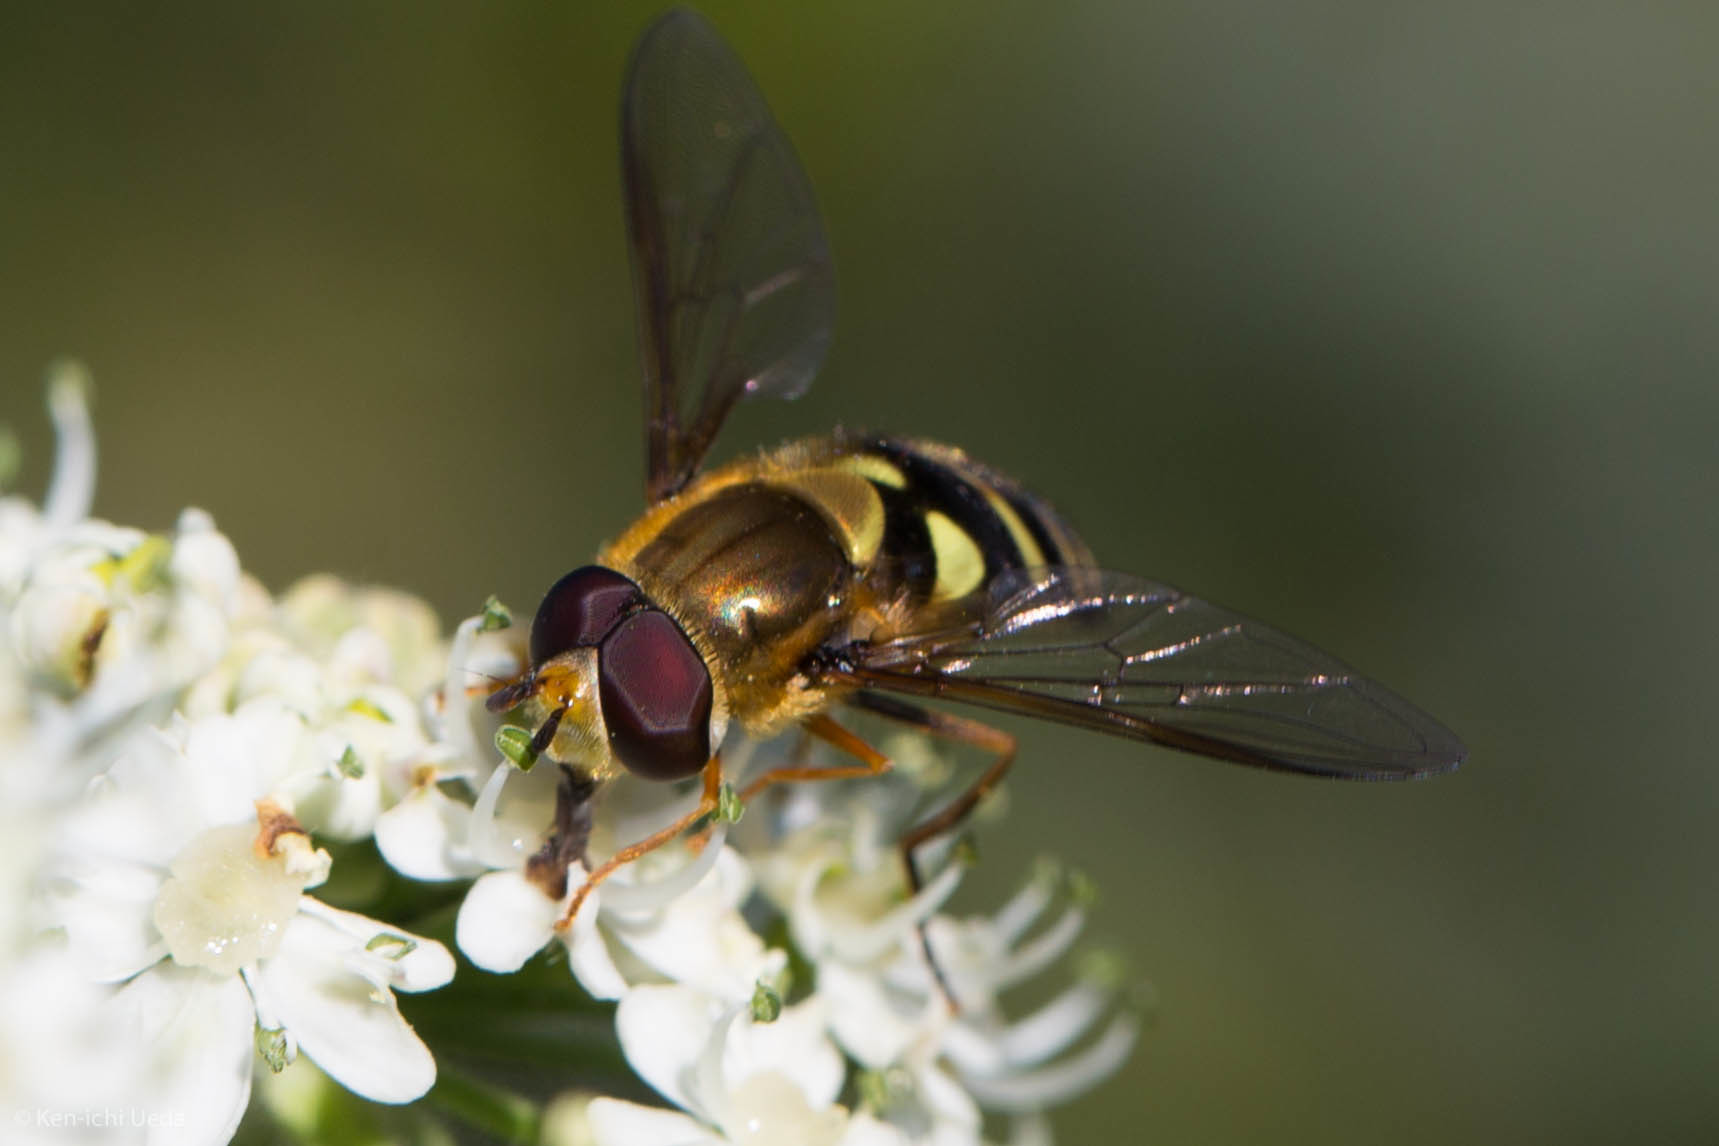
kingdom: Animalia
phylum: Arthropoda
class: Insecta
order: Diptera
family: Syrphidae
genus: Syrphus
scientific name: Syrphus opinator
